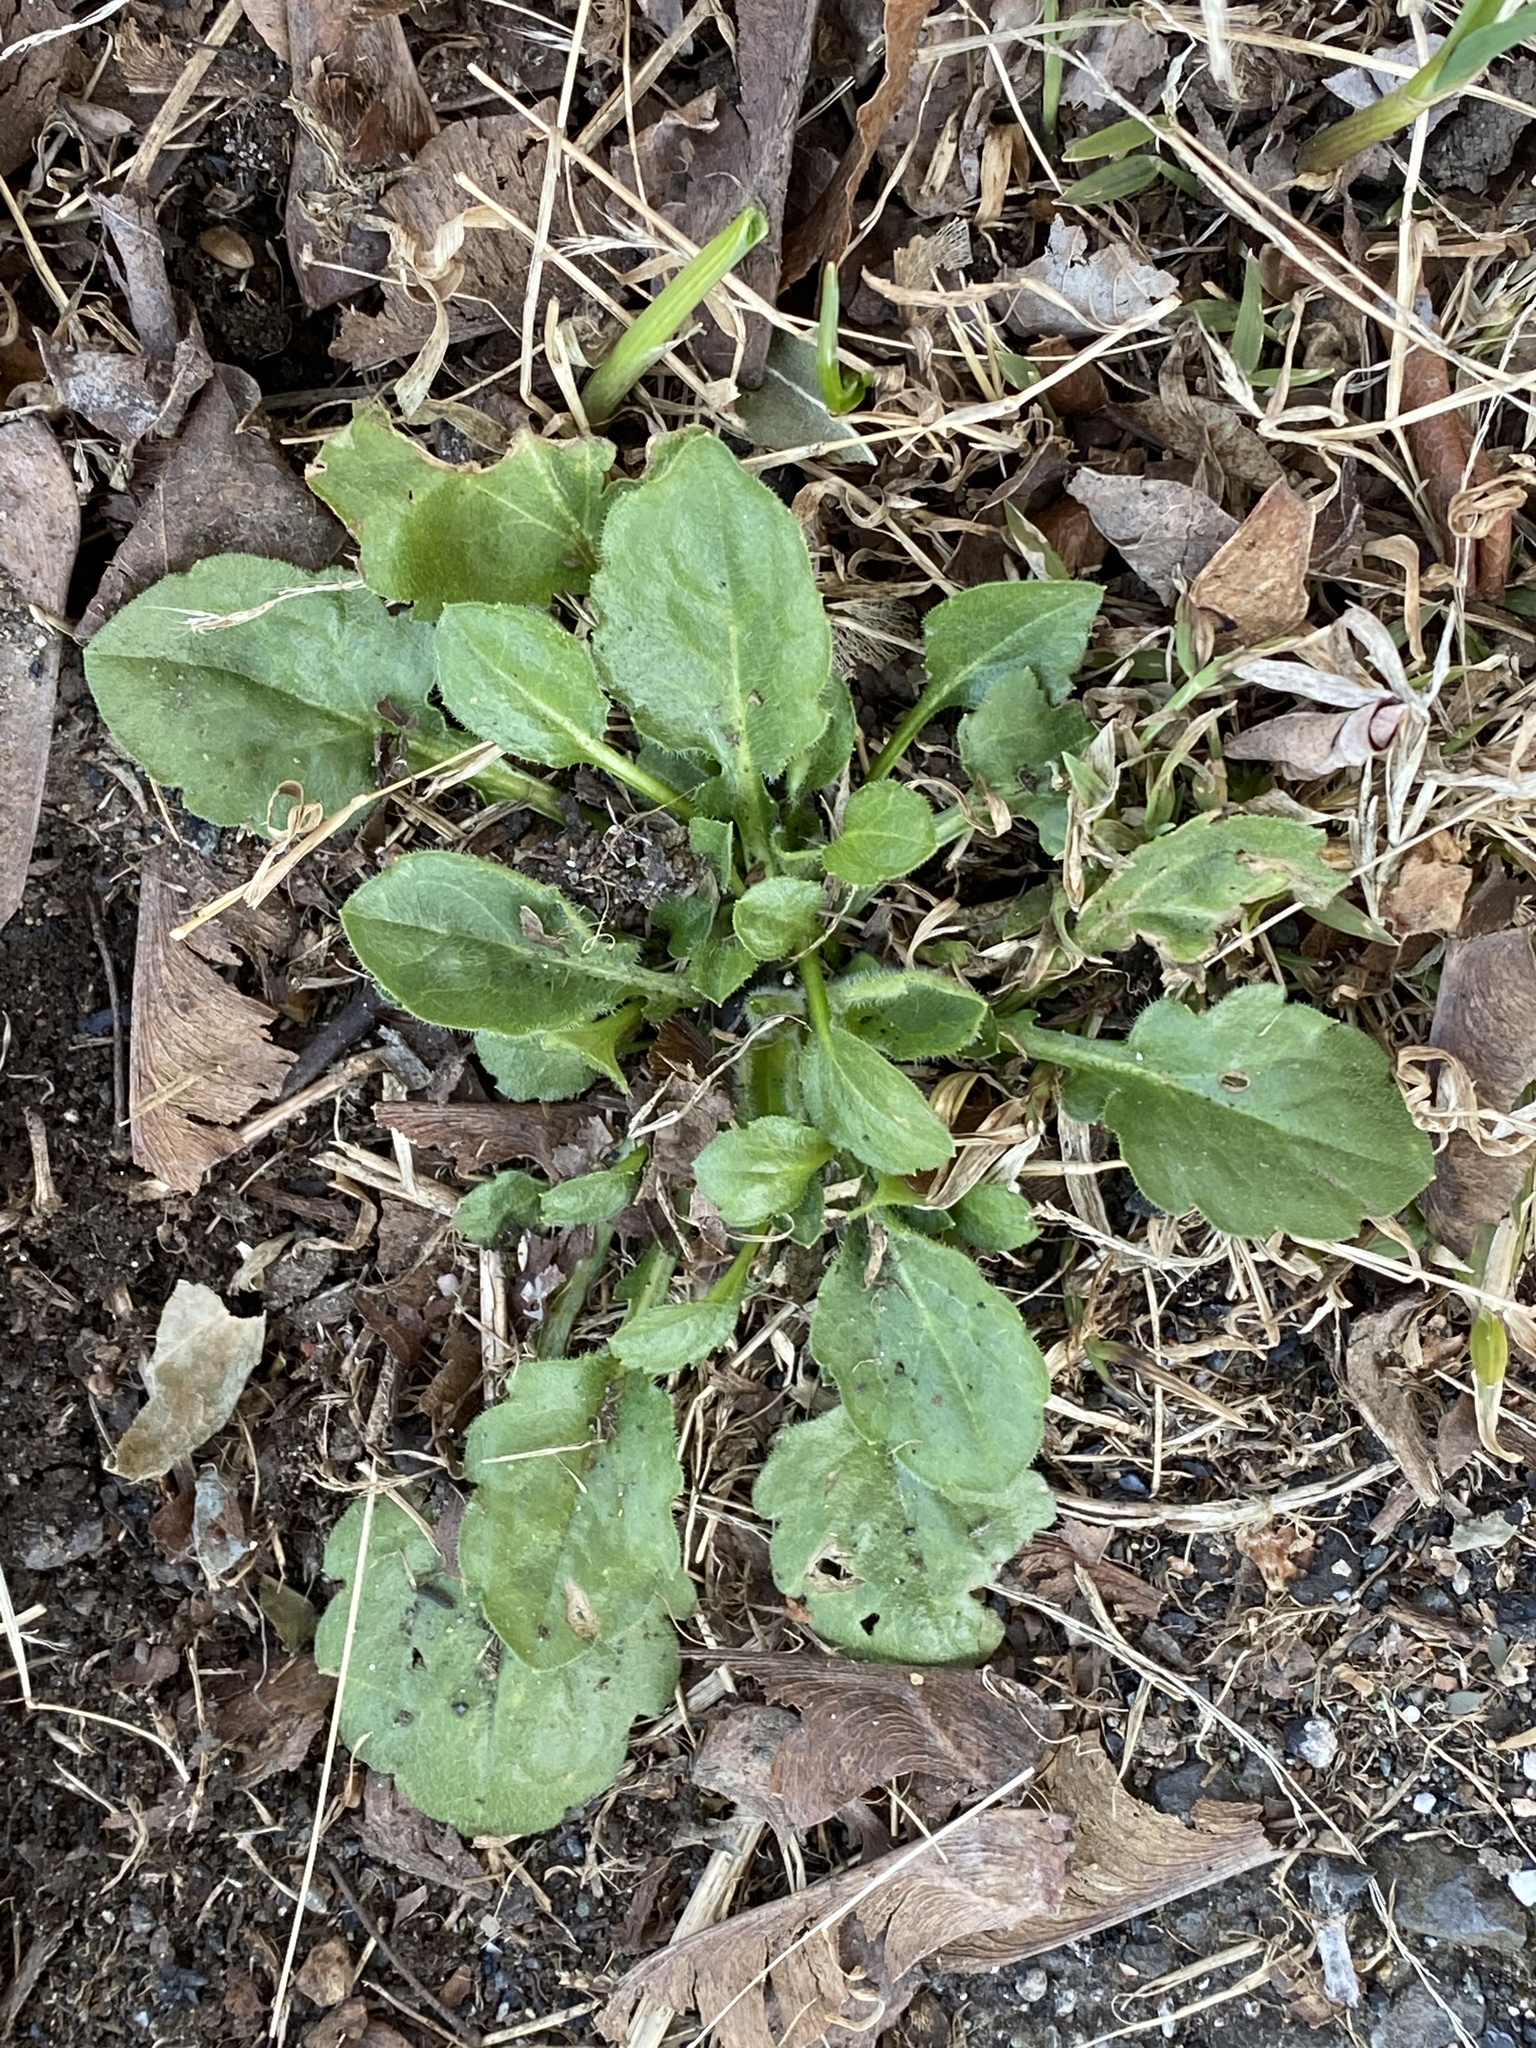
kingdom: Plantae
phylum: Tracheophyta
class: Magnoliopsida
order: Asterales
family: Asteraceae
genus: Erigeron
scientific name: Erigeron annuus
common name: Tall fleabane
